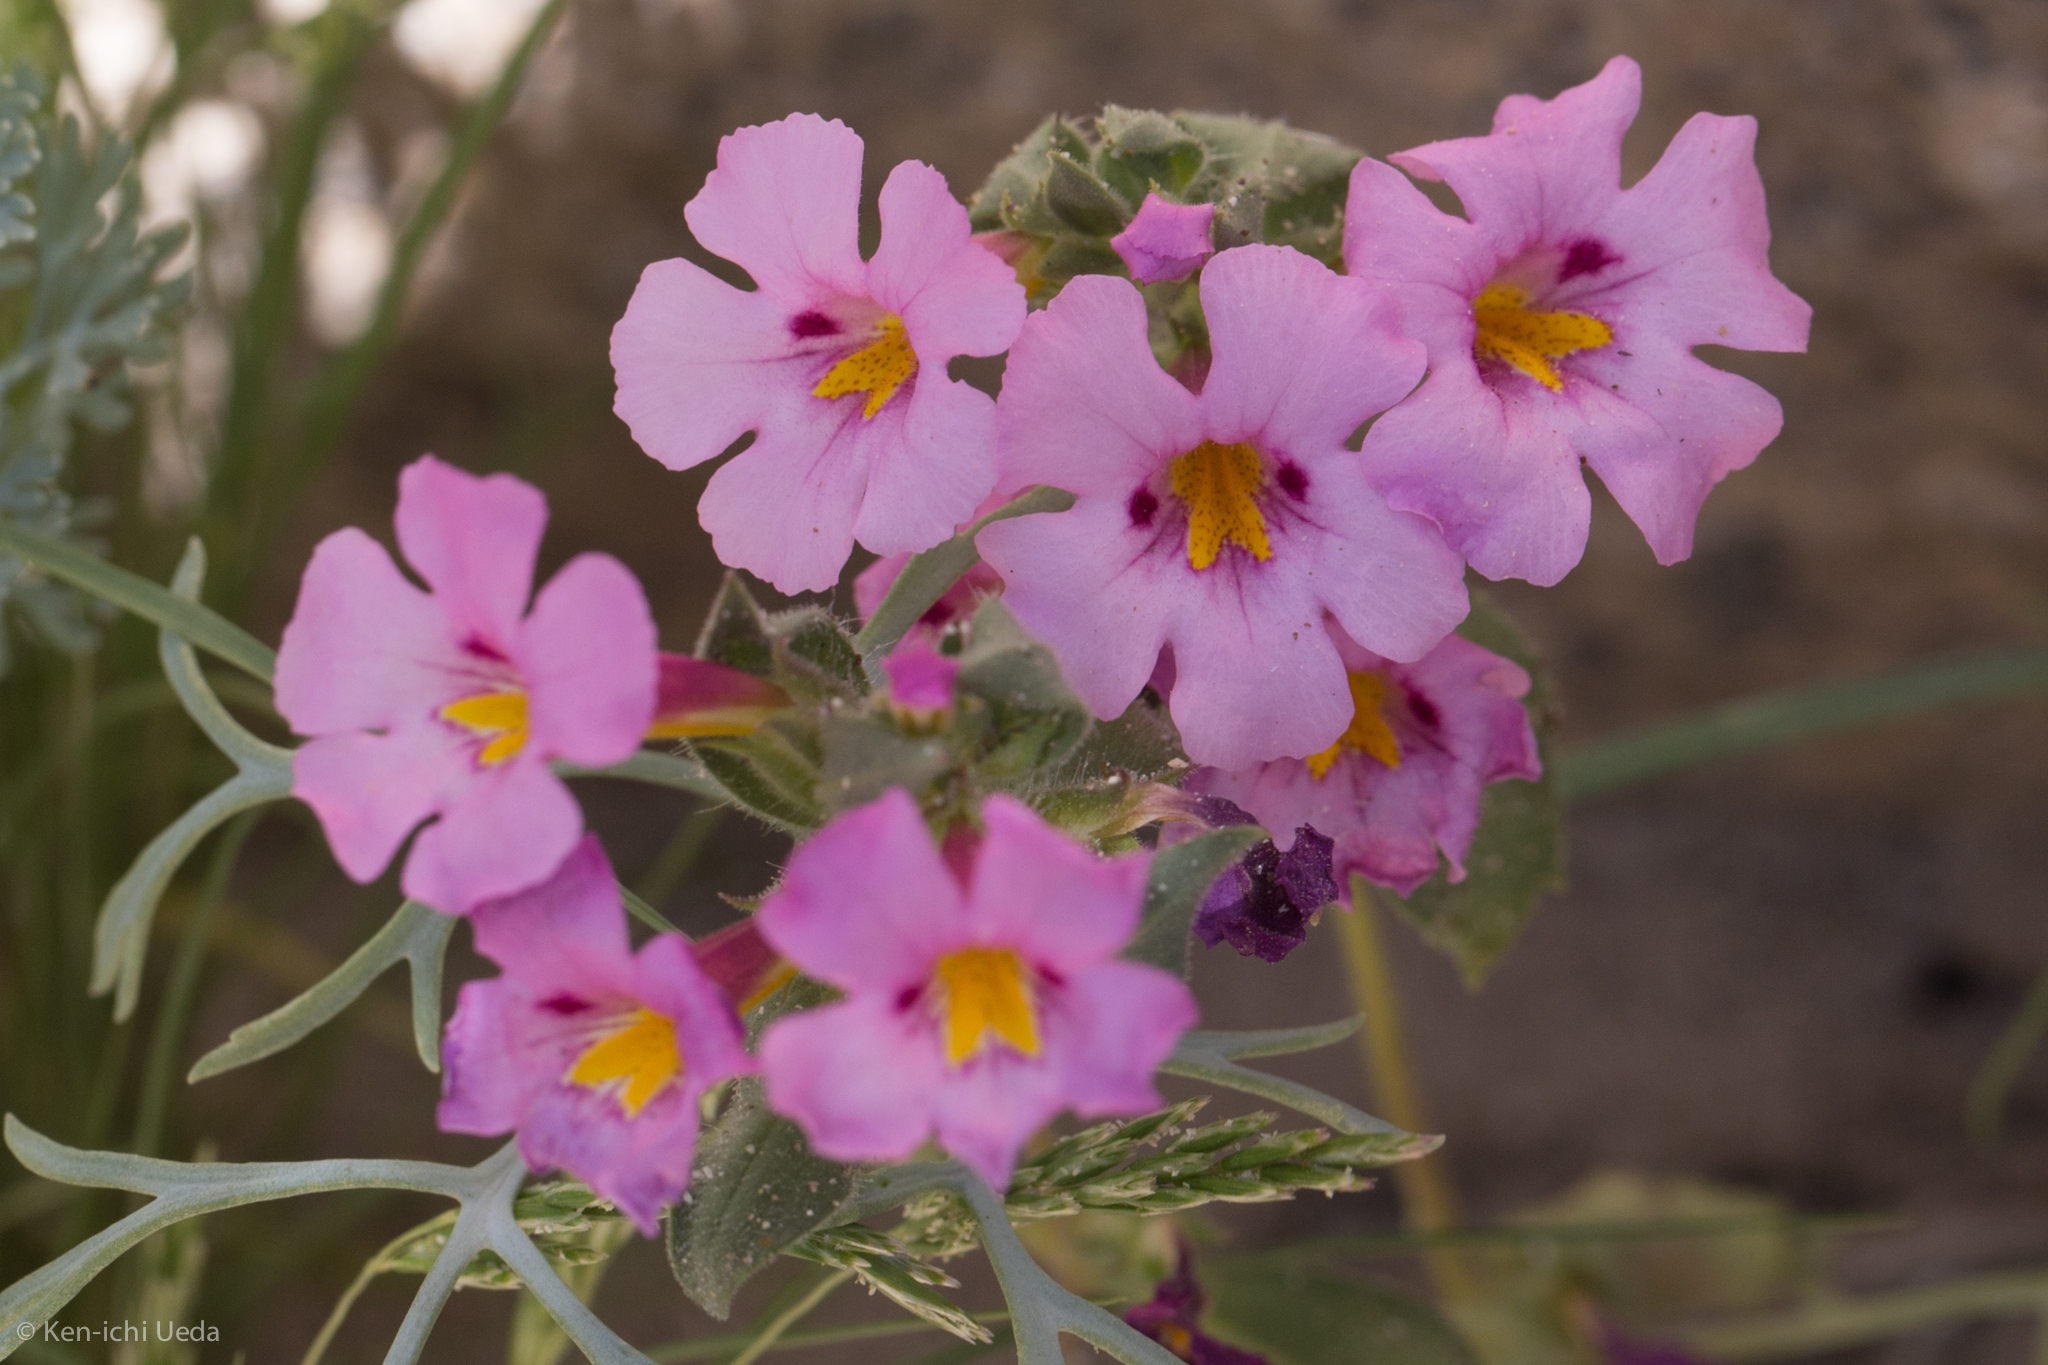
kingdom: Plantae
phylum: Tracheophyta
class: Magnoliopsida
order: Lamiales
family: Phrymaceae
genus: Diplacus
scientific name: Diplacus bigelovii
